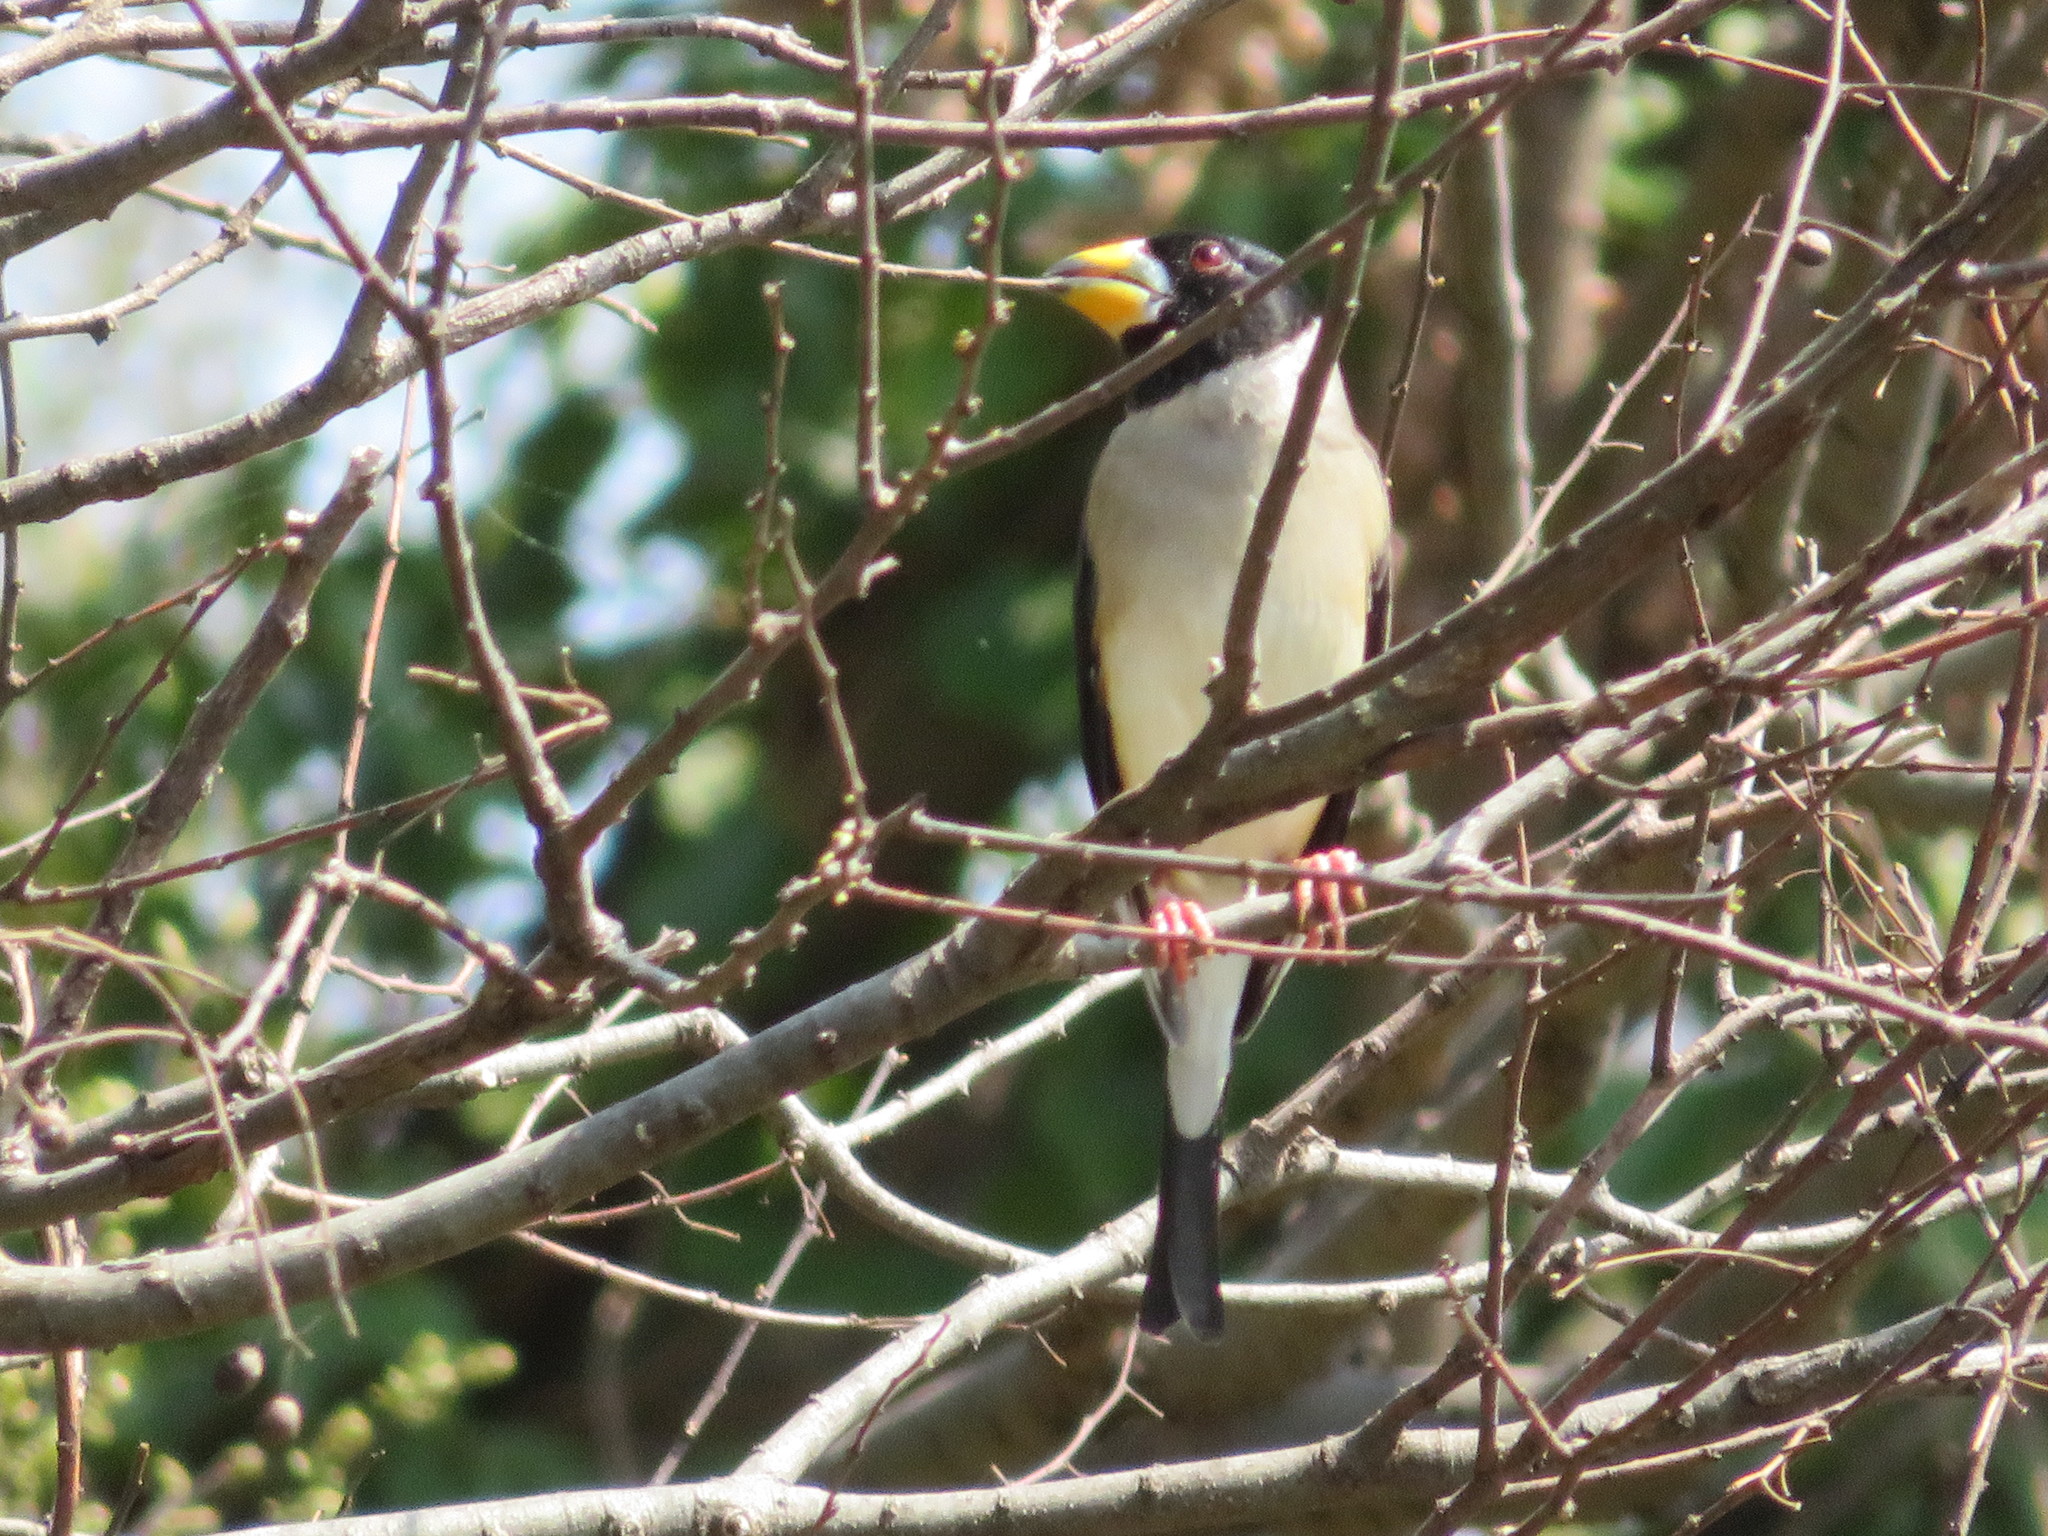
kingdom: Animalia
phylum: Chordata
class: Aves
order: Passeriformes
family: Fringillidae
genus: Eophona
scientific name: Eophona migratoria
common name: Yellow-billed grosbeak
